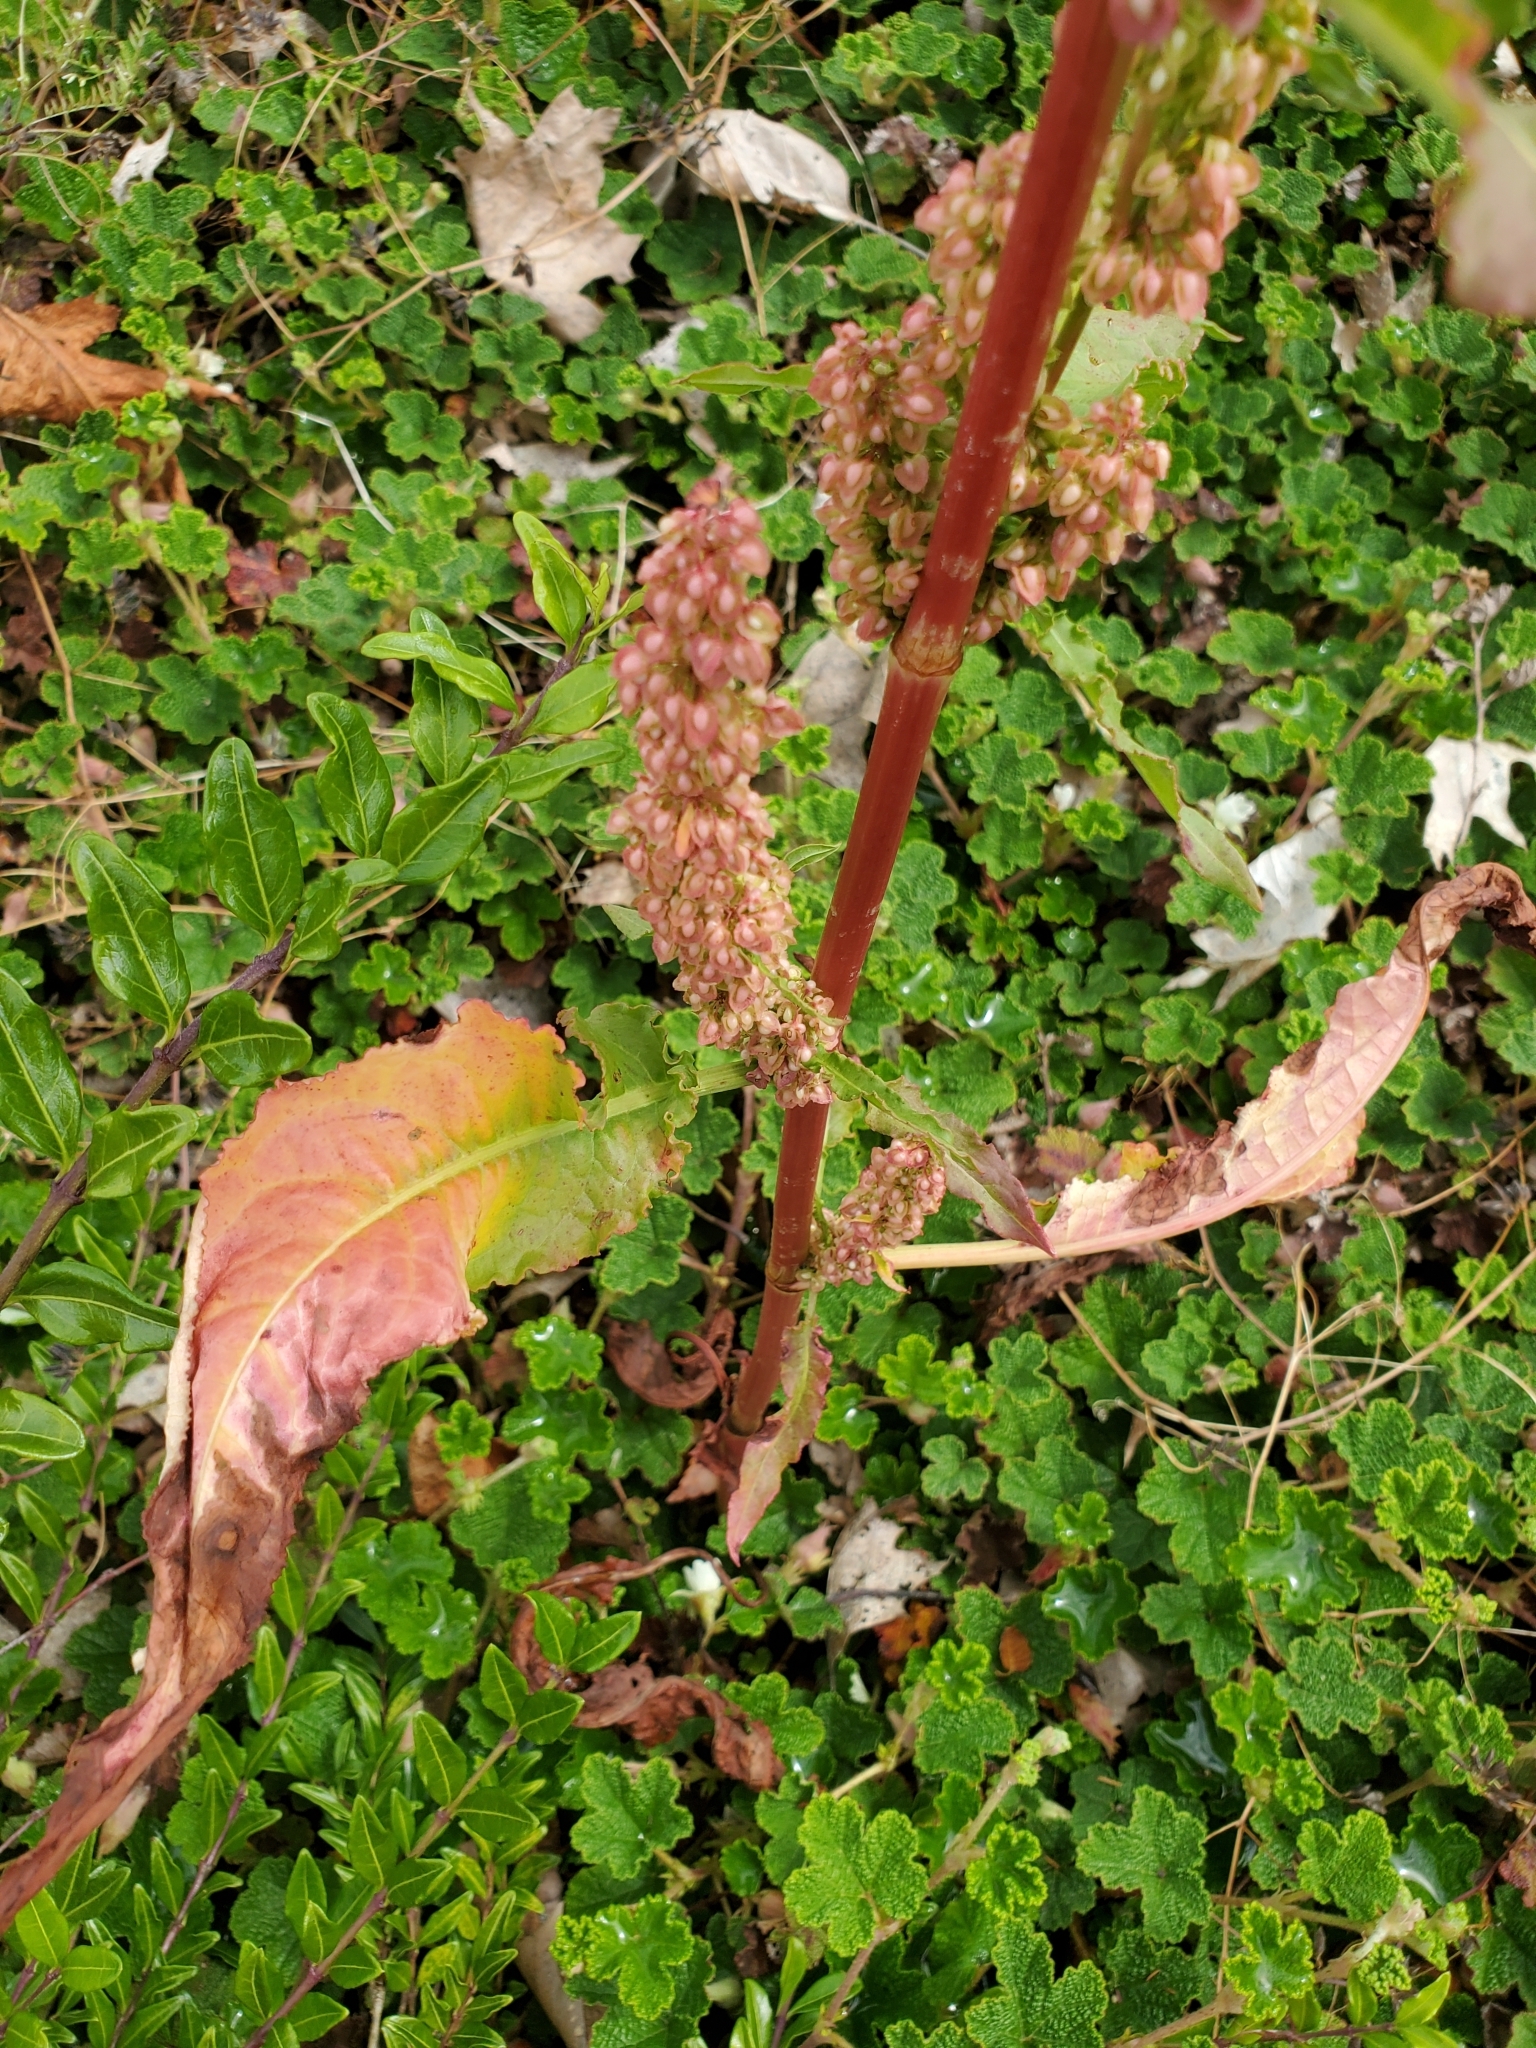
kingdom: Plantae
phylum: Tracheophyta
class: Magnoliopsida
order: Caryophyllales
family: Polygonaceae
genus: Rumex
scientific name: Rumex crispus
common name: Curled dock
